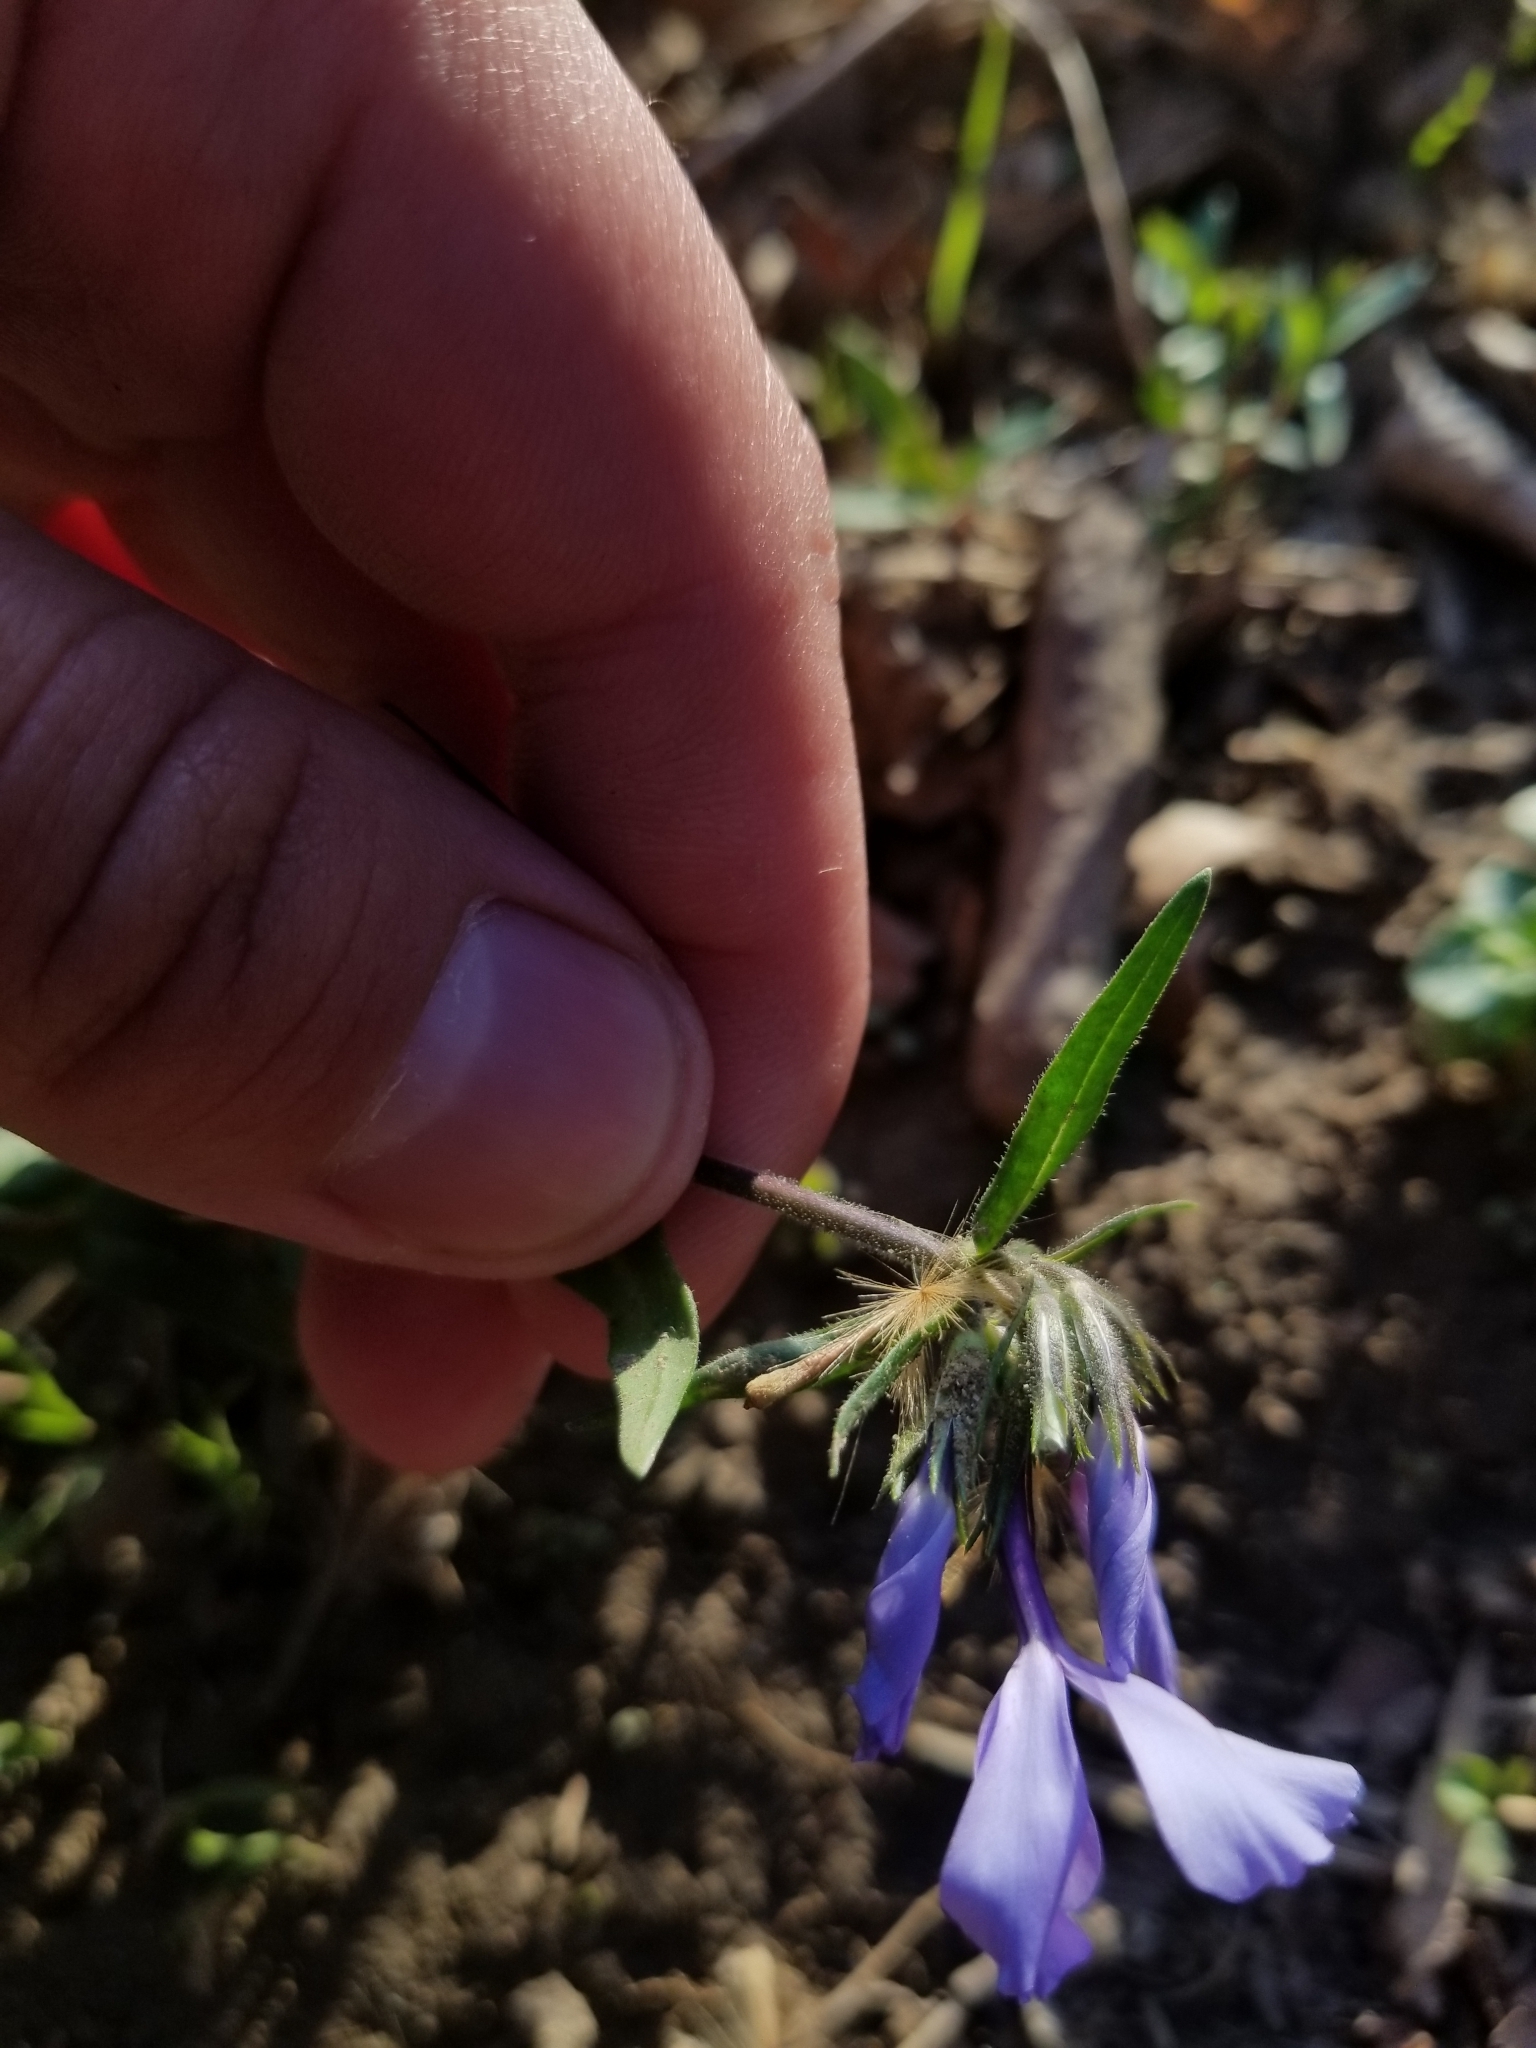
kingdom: Plantae
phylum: Tracheophyta
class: Magnoliopsida
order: Ericales
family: Polemoniaceae
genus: Phlox
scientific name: Phlox divaricata
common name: Blue phlox
